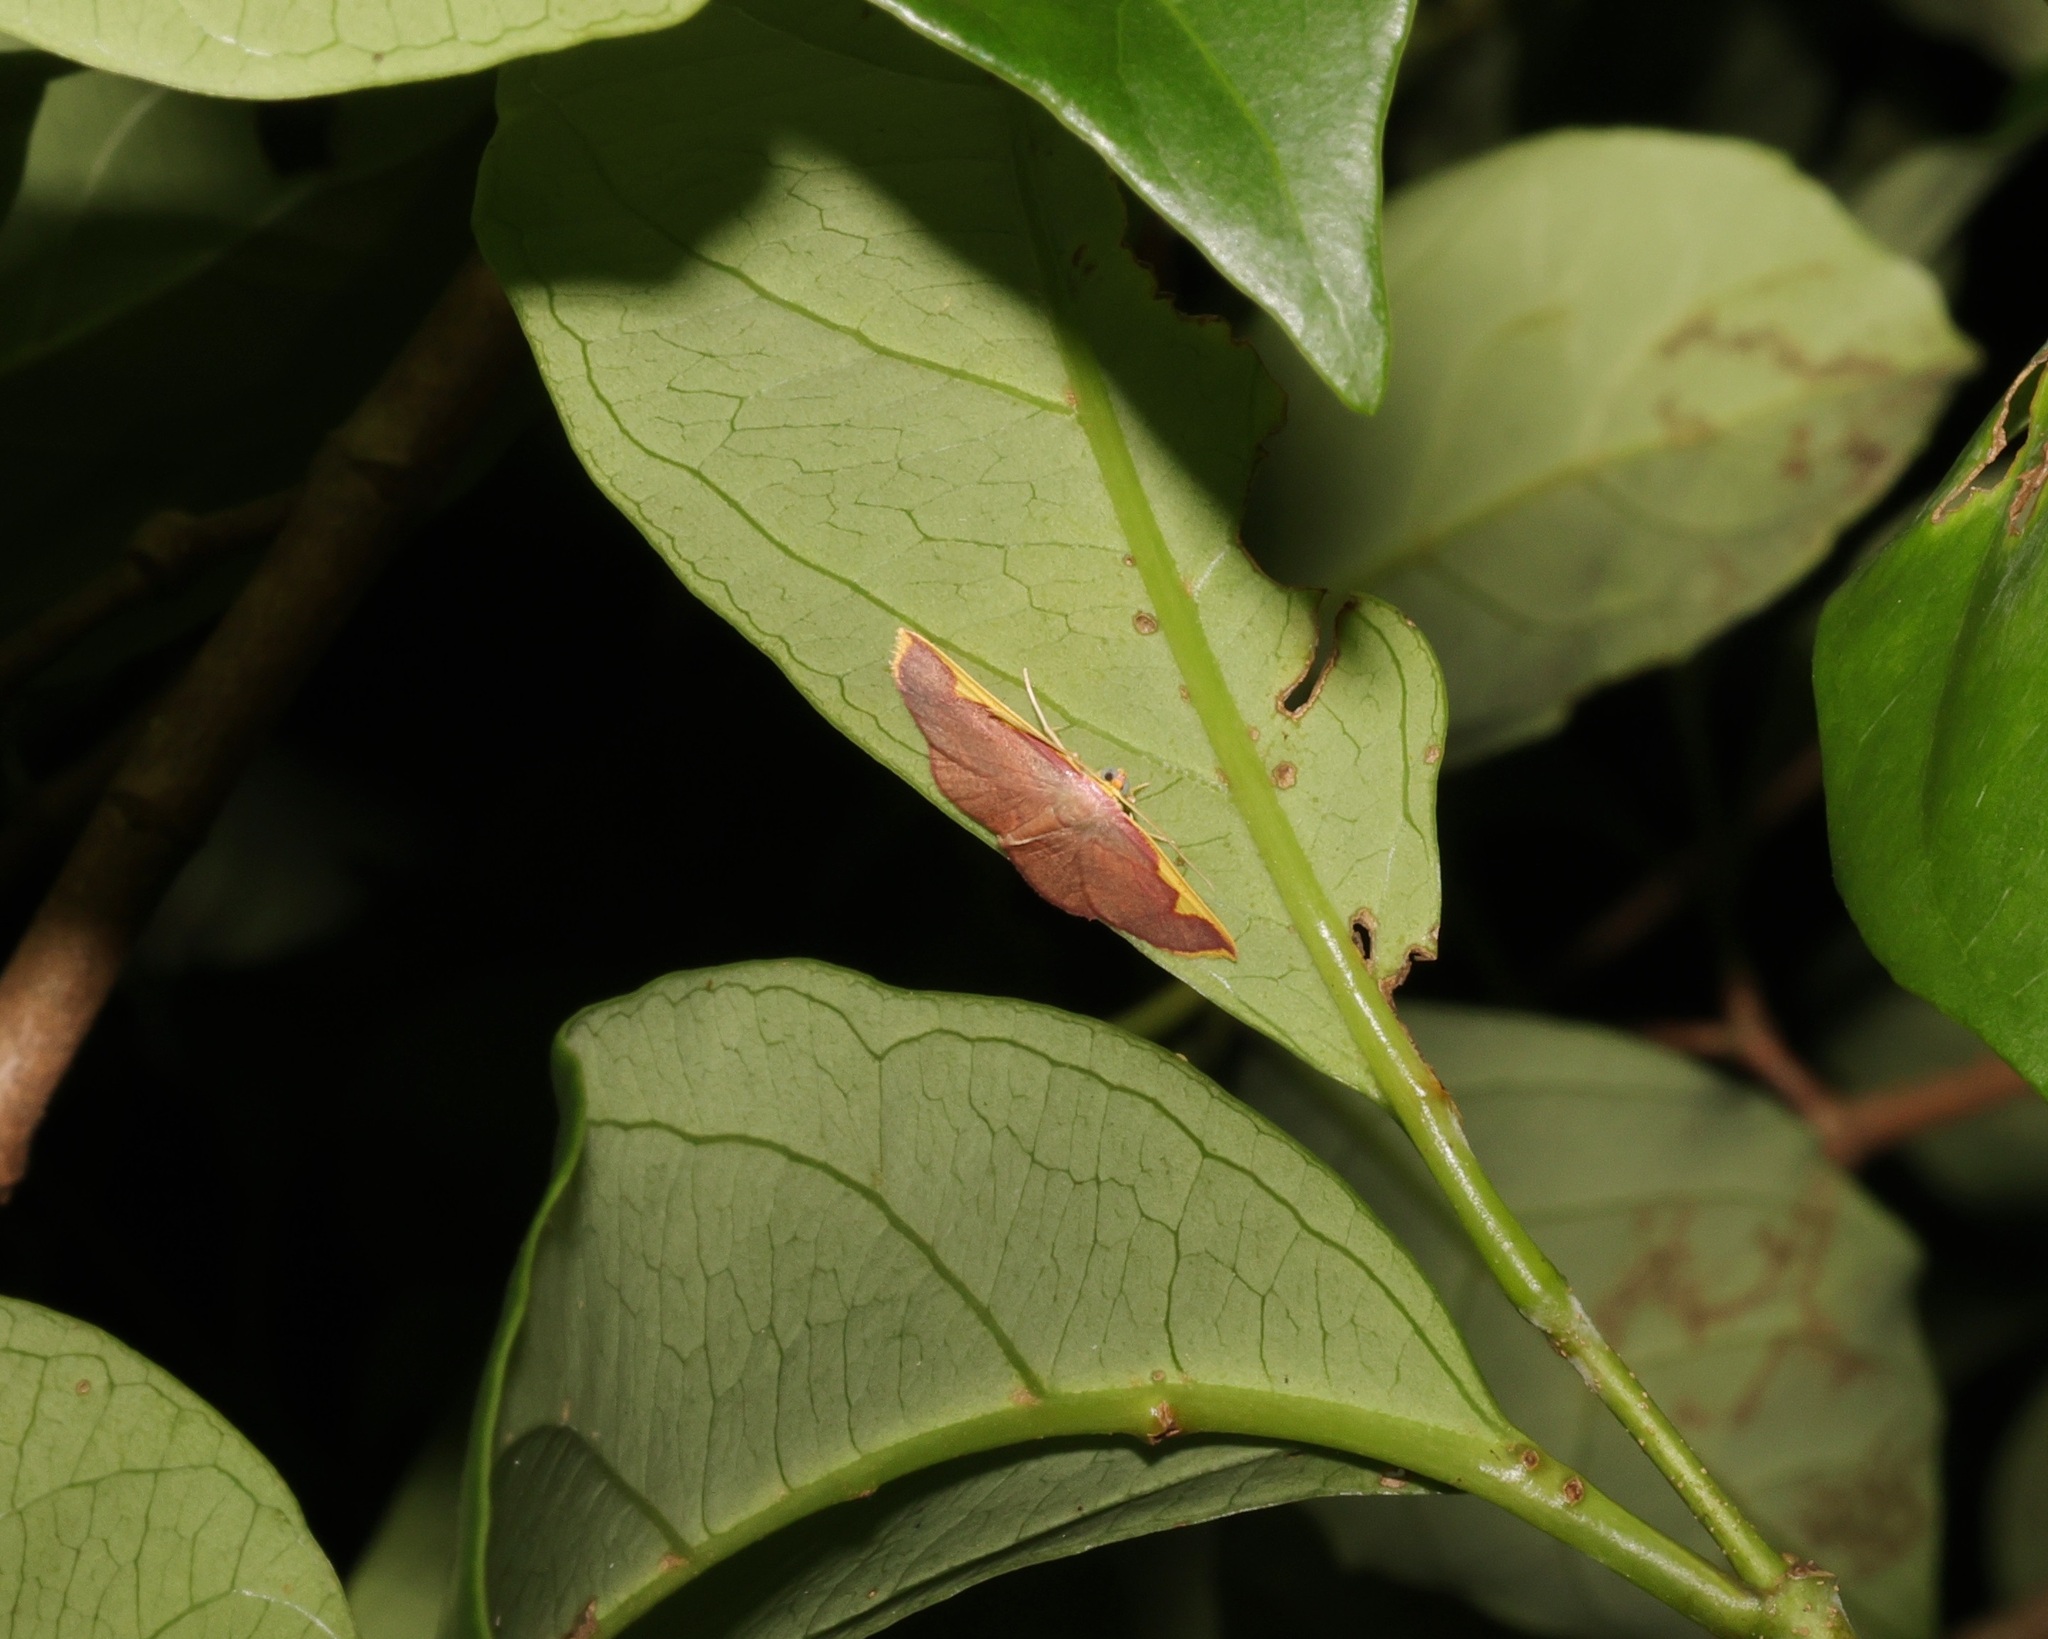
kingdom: Animalia
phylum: Arthropoda
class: Insecta
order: Lepidoptera
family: Geometridae
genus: Nothomiza
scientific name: Nothomiza flavicosta
